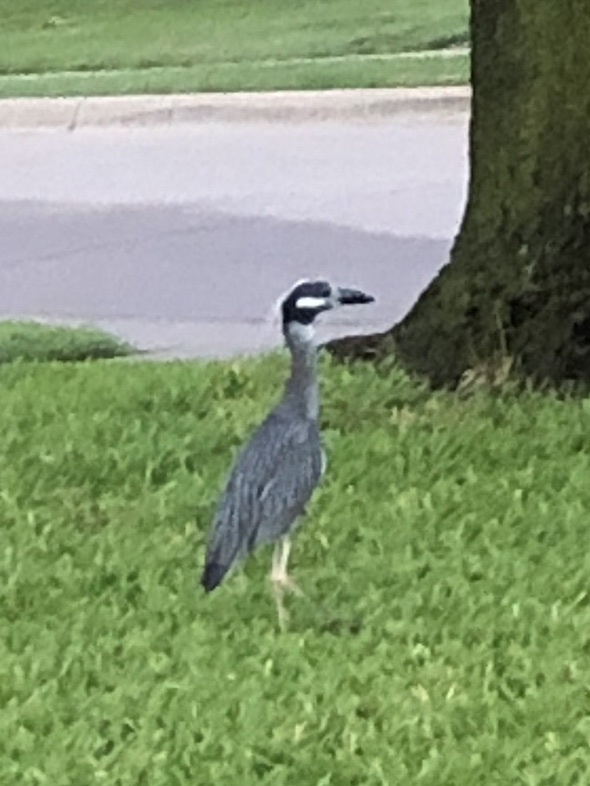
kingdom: Animalia
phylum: Chordata
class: Aves
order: Pelecaniformes
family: Ardeidae
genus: Nyctanassa
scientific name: Nyctanassa violacea
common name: Yellow-crowned night heron
